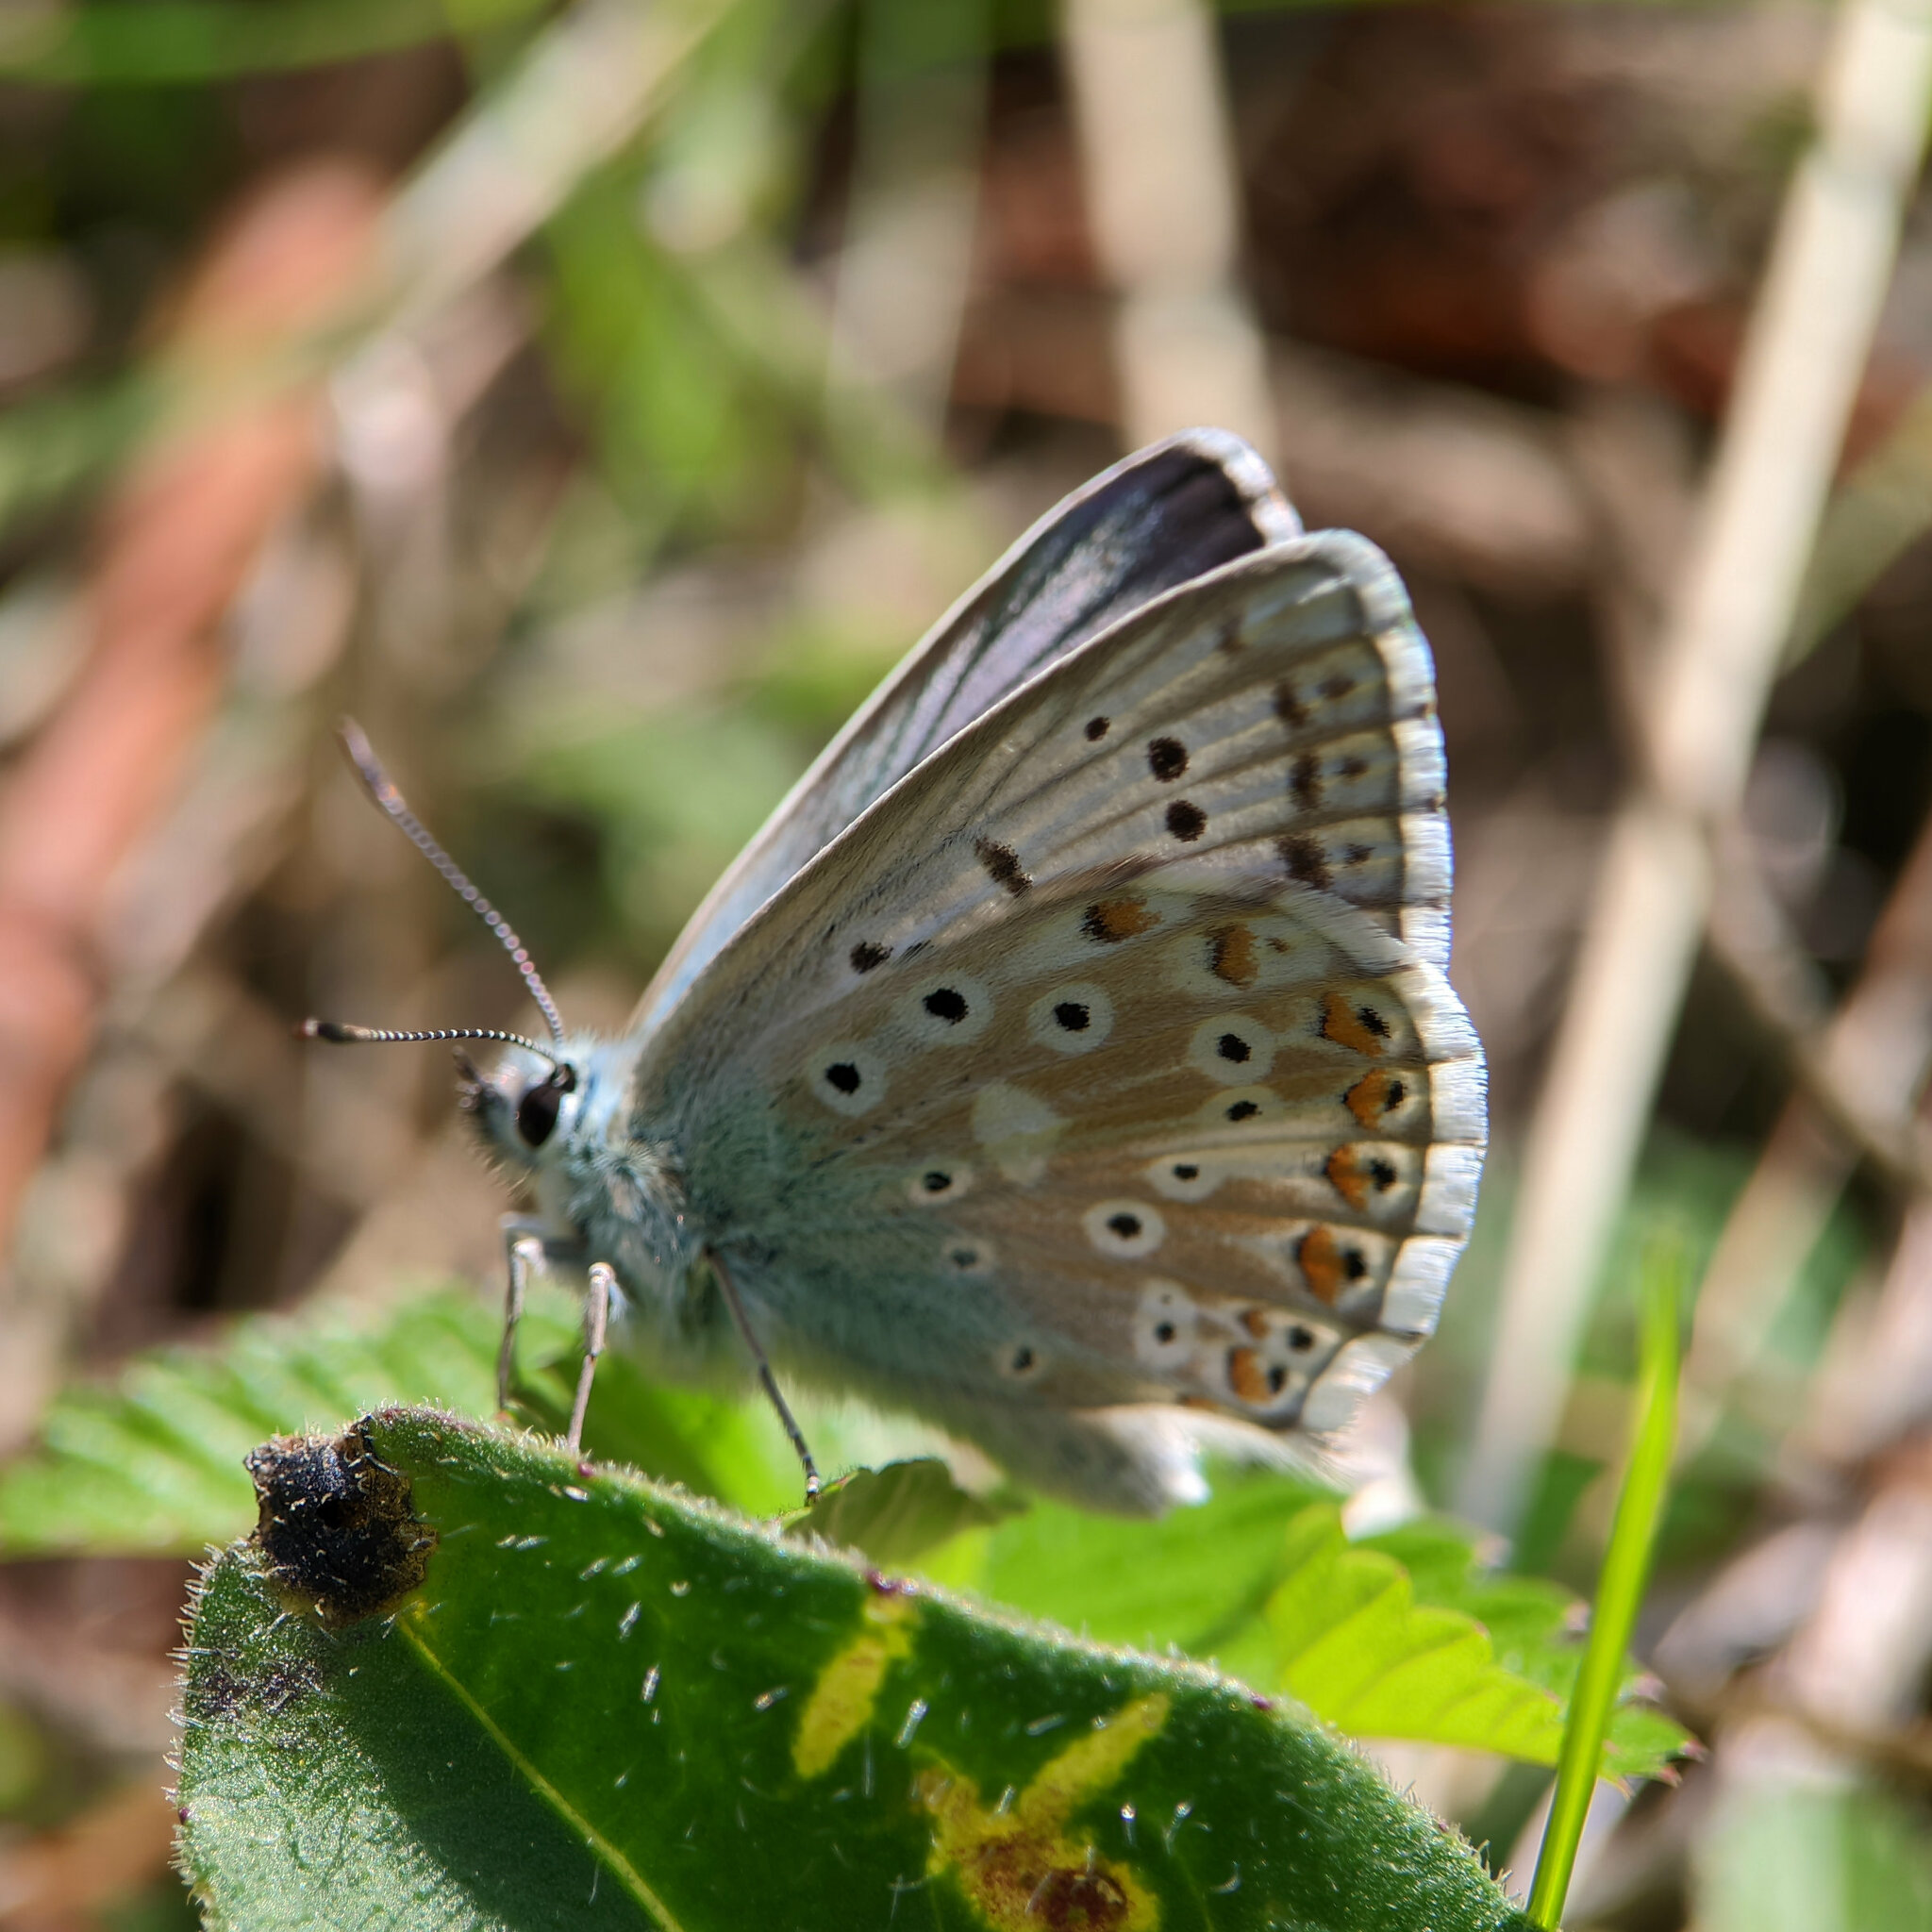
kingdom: Animalia
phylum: Arthropoda
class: Insecta
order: Lepidoptera
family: Lycaenidae
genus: Lysandra
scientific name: Lysandra coridon
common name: Chalkhill blue
